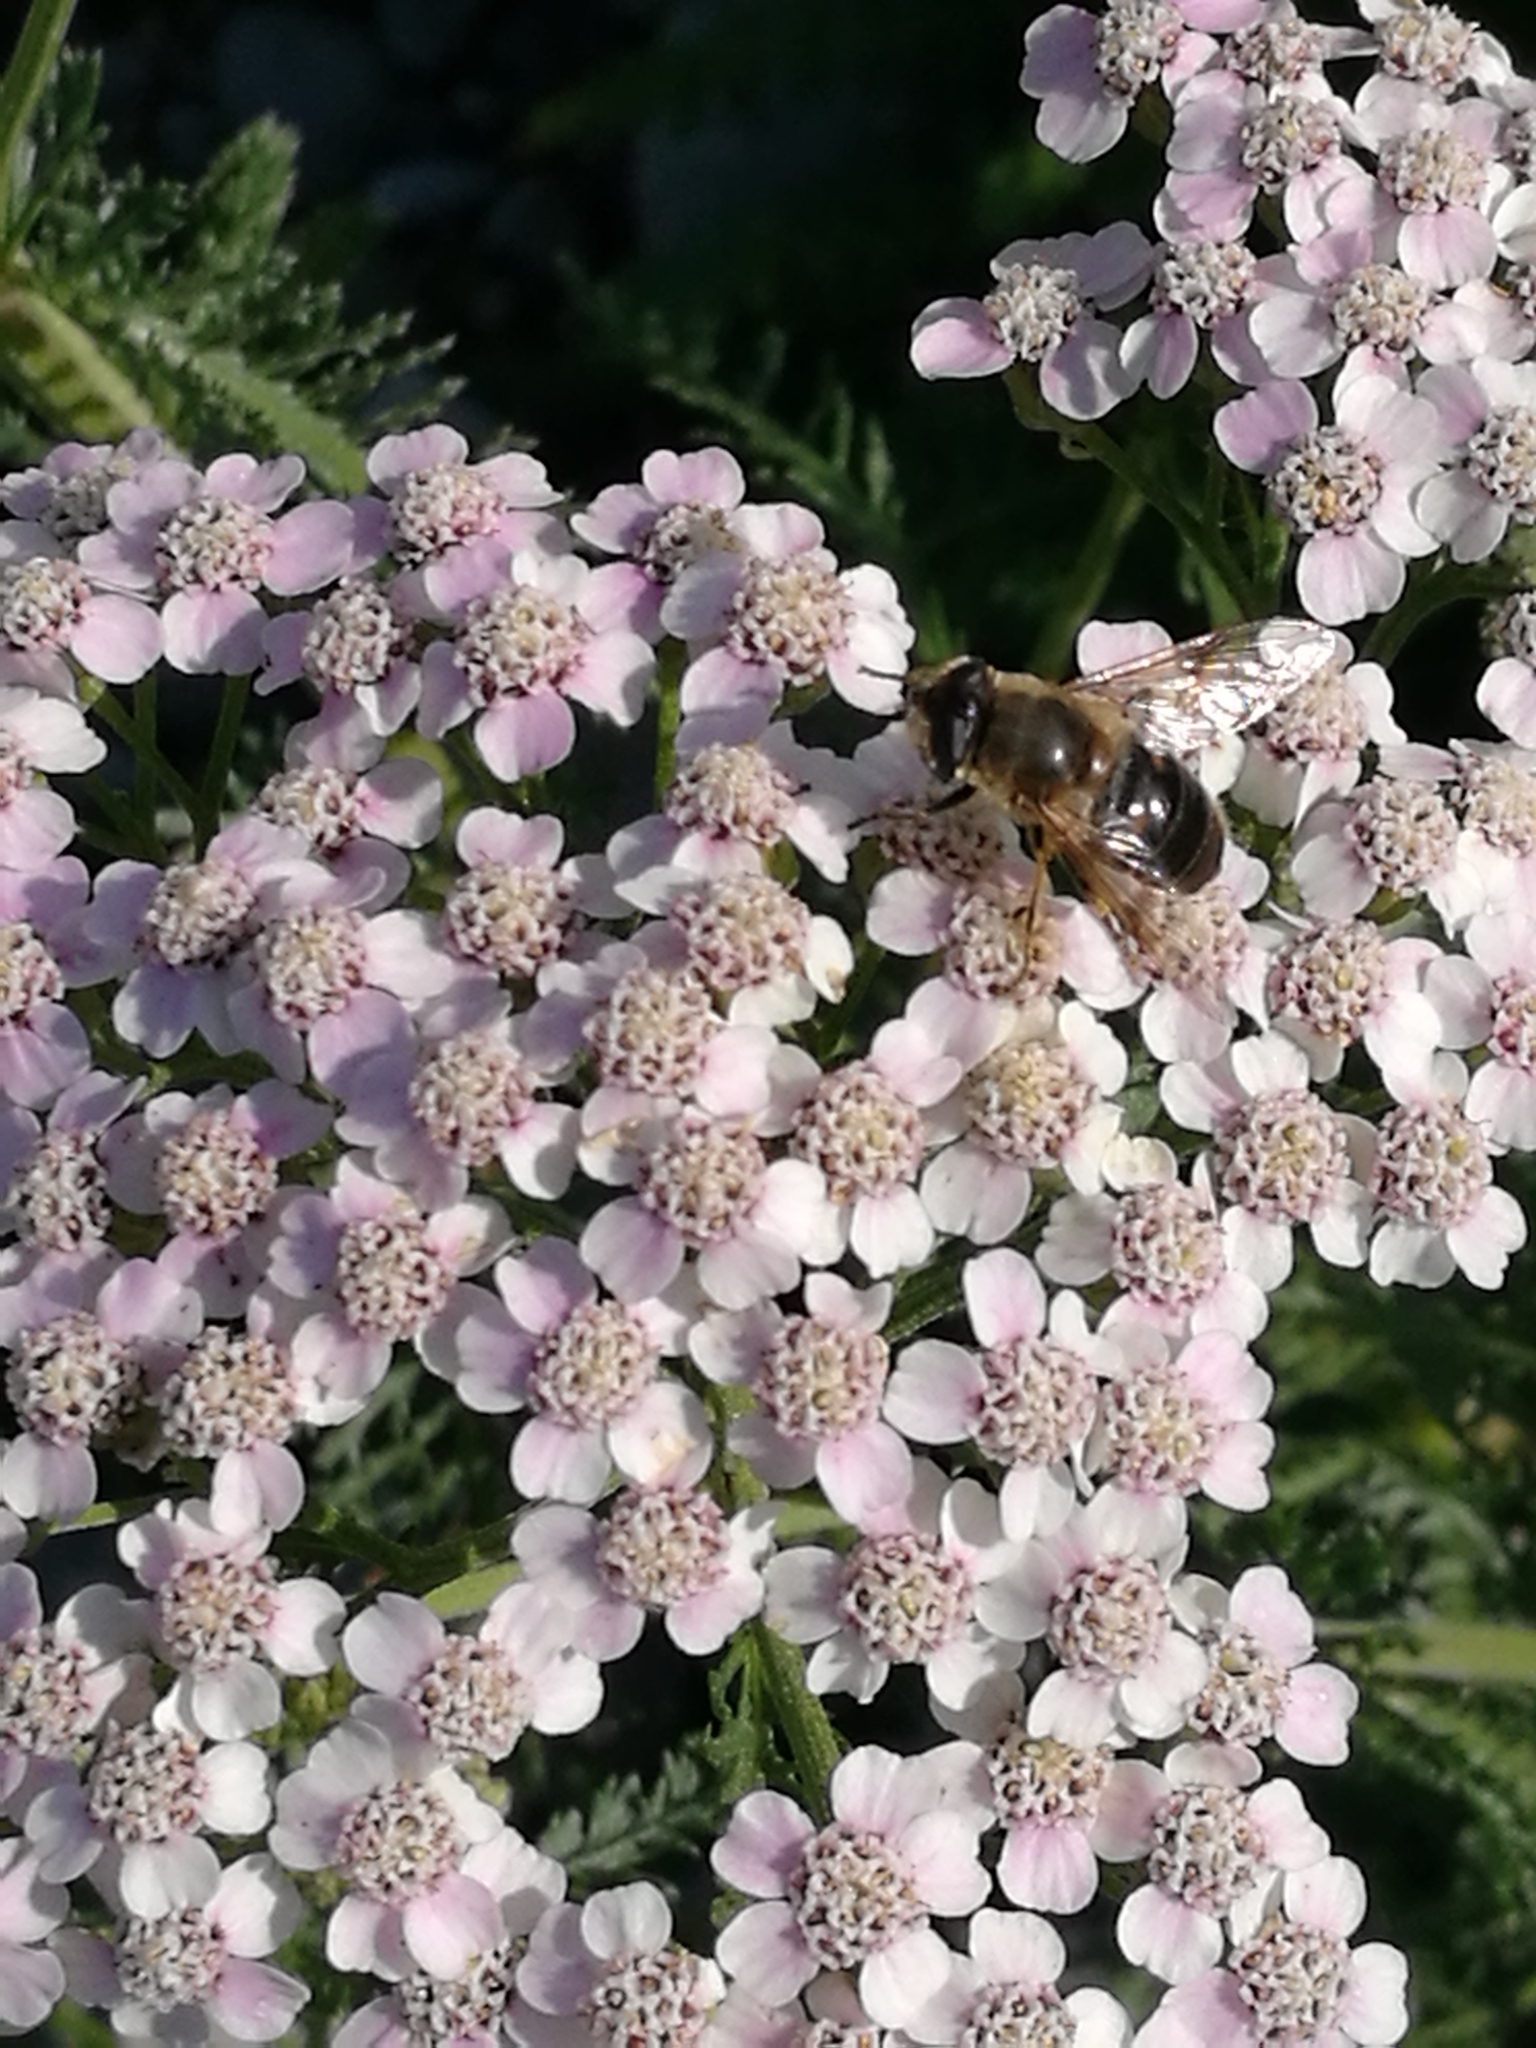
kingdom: Animalia
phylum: Arthropoda
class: Insecta
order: Diptera
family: Syrphidae
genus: Eristalis
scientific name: Eristalis tenax
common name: Drone fly
